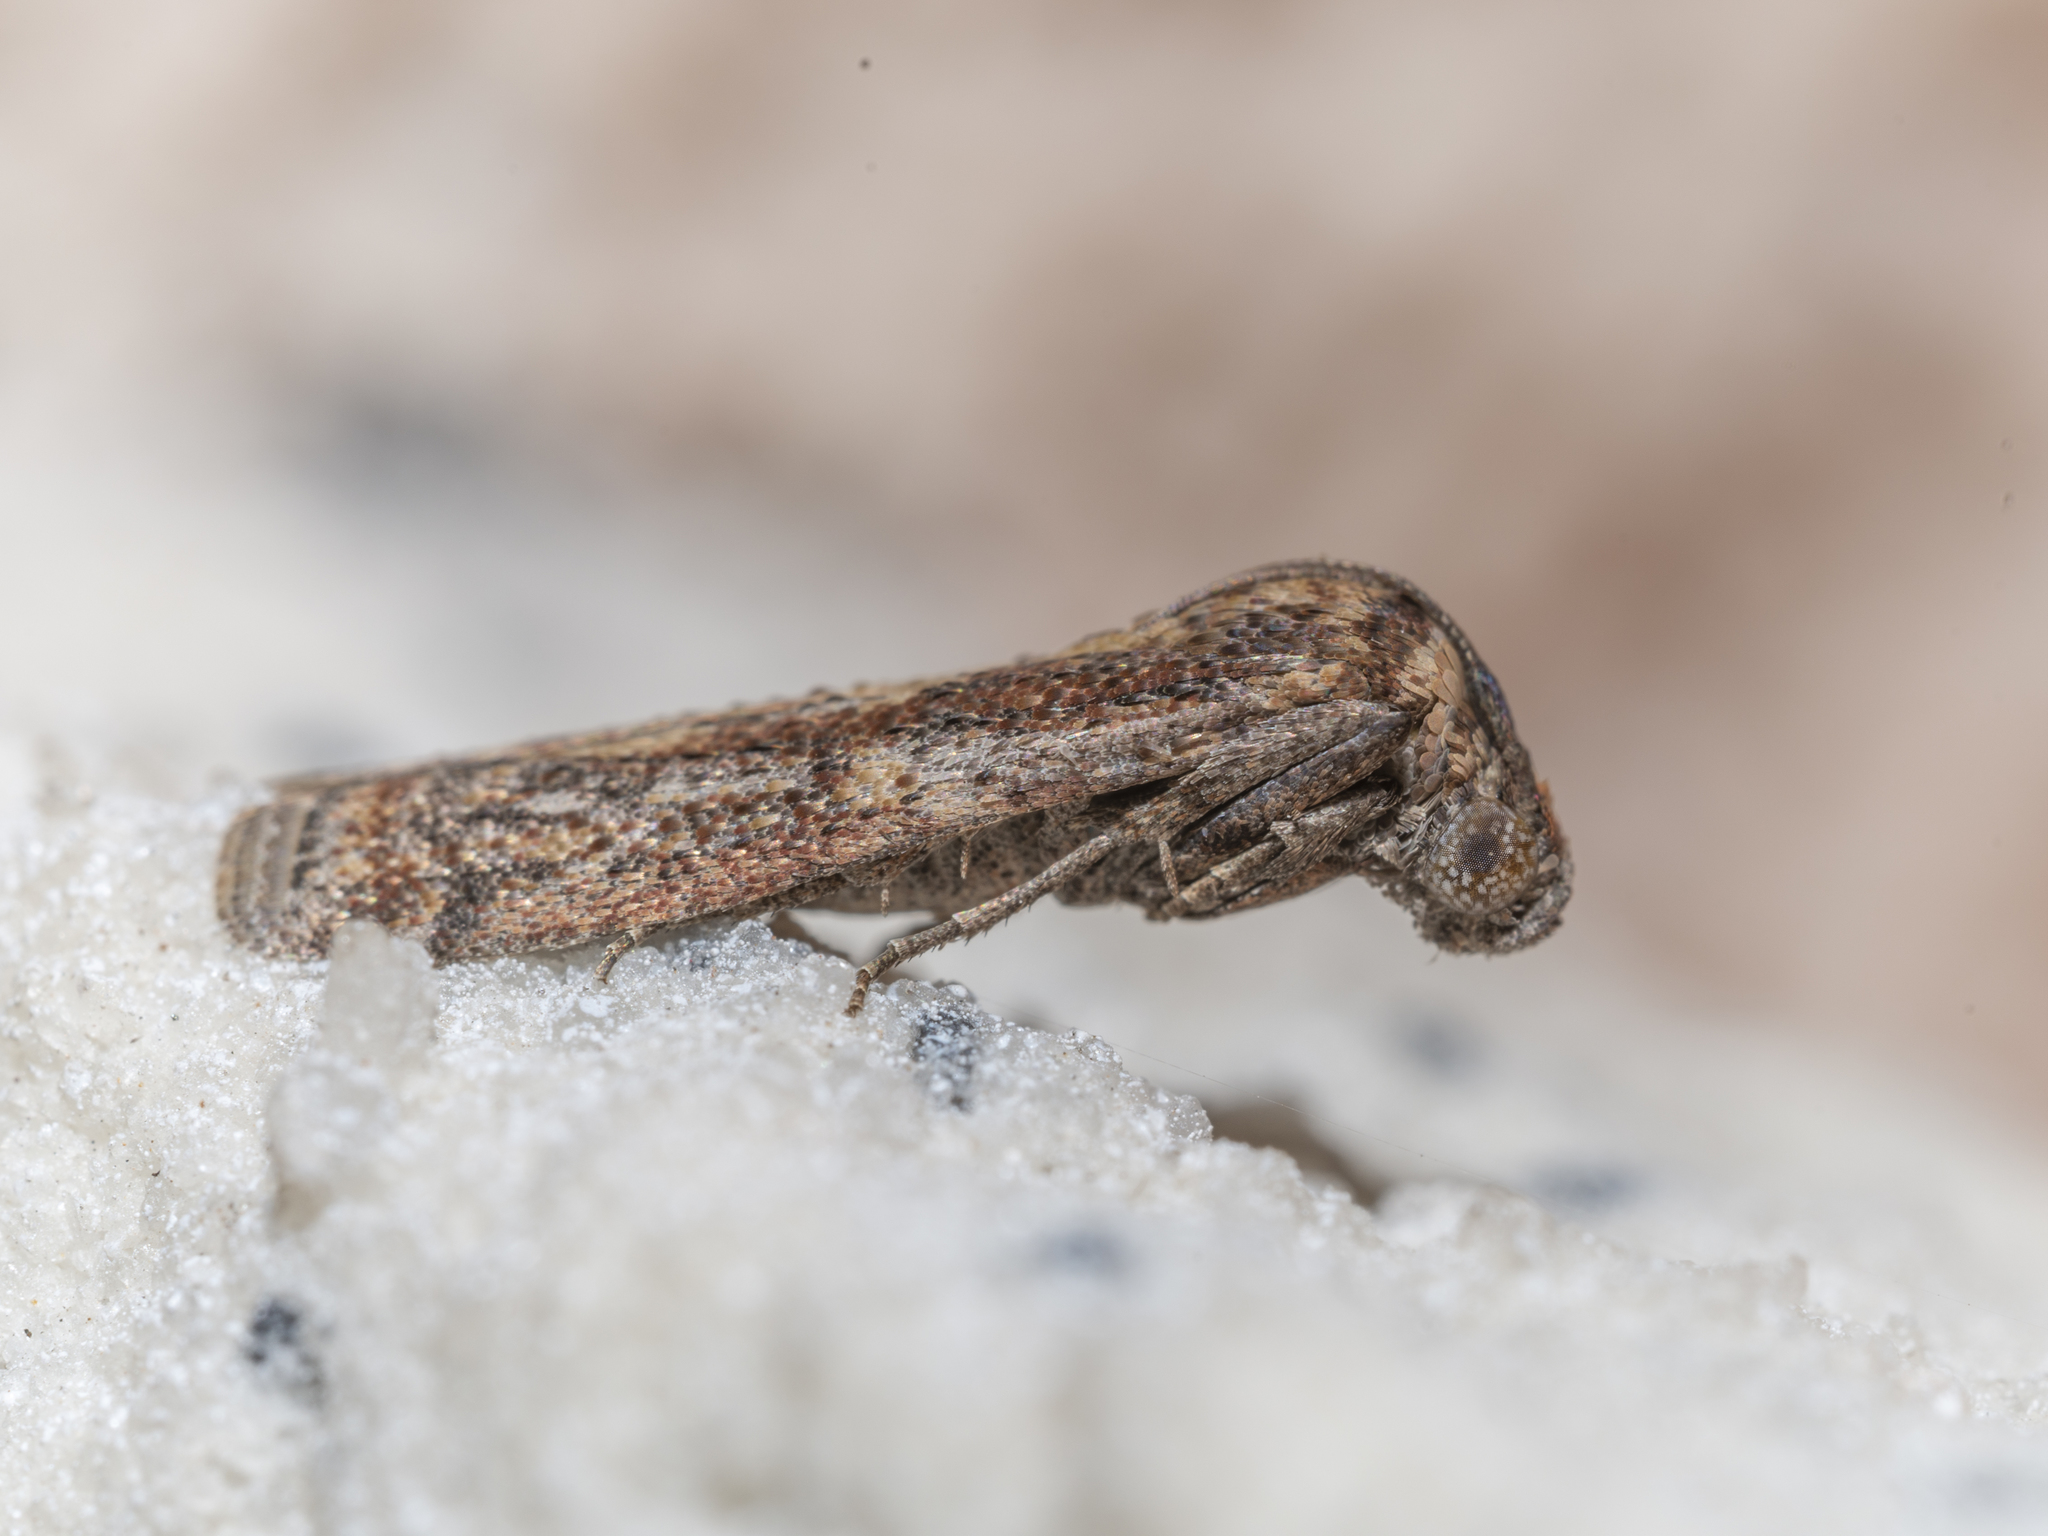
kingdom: Animalia
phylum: Arthropoda
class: Insecta
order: Lepidoptera
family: Pyralidae
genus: Phycita
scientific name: Phycita cirrhodelta
